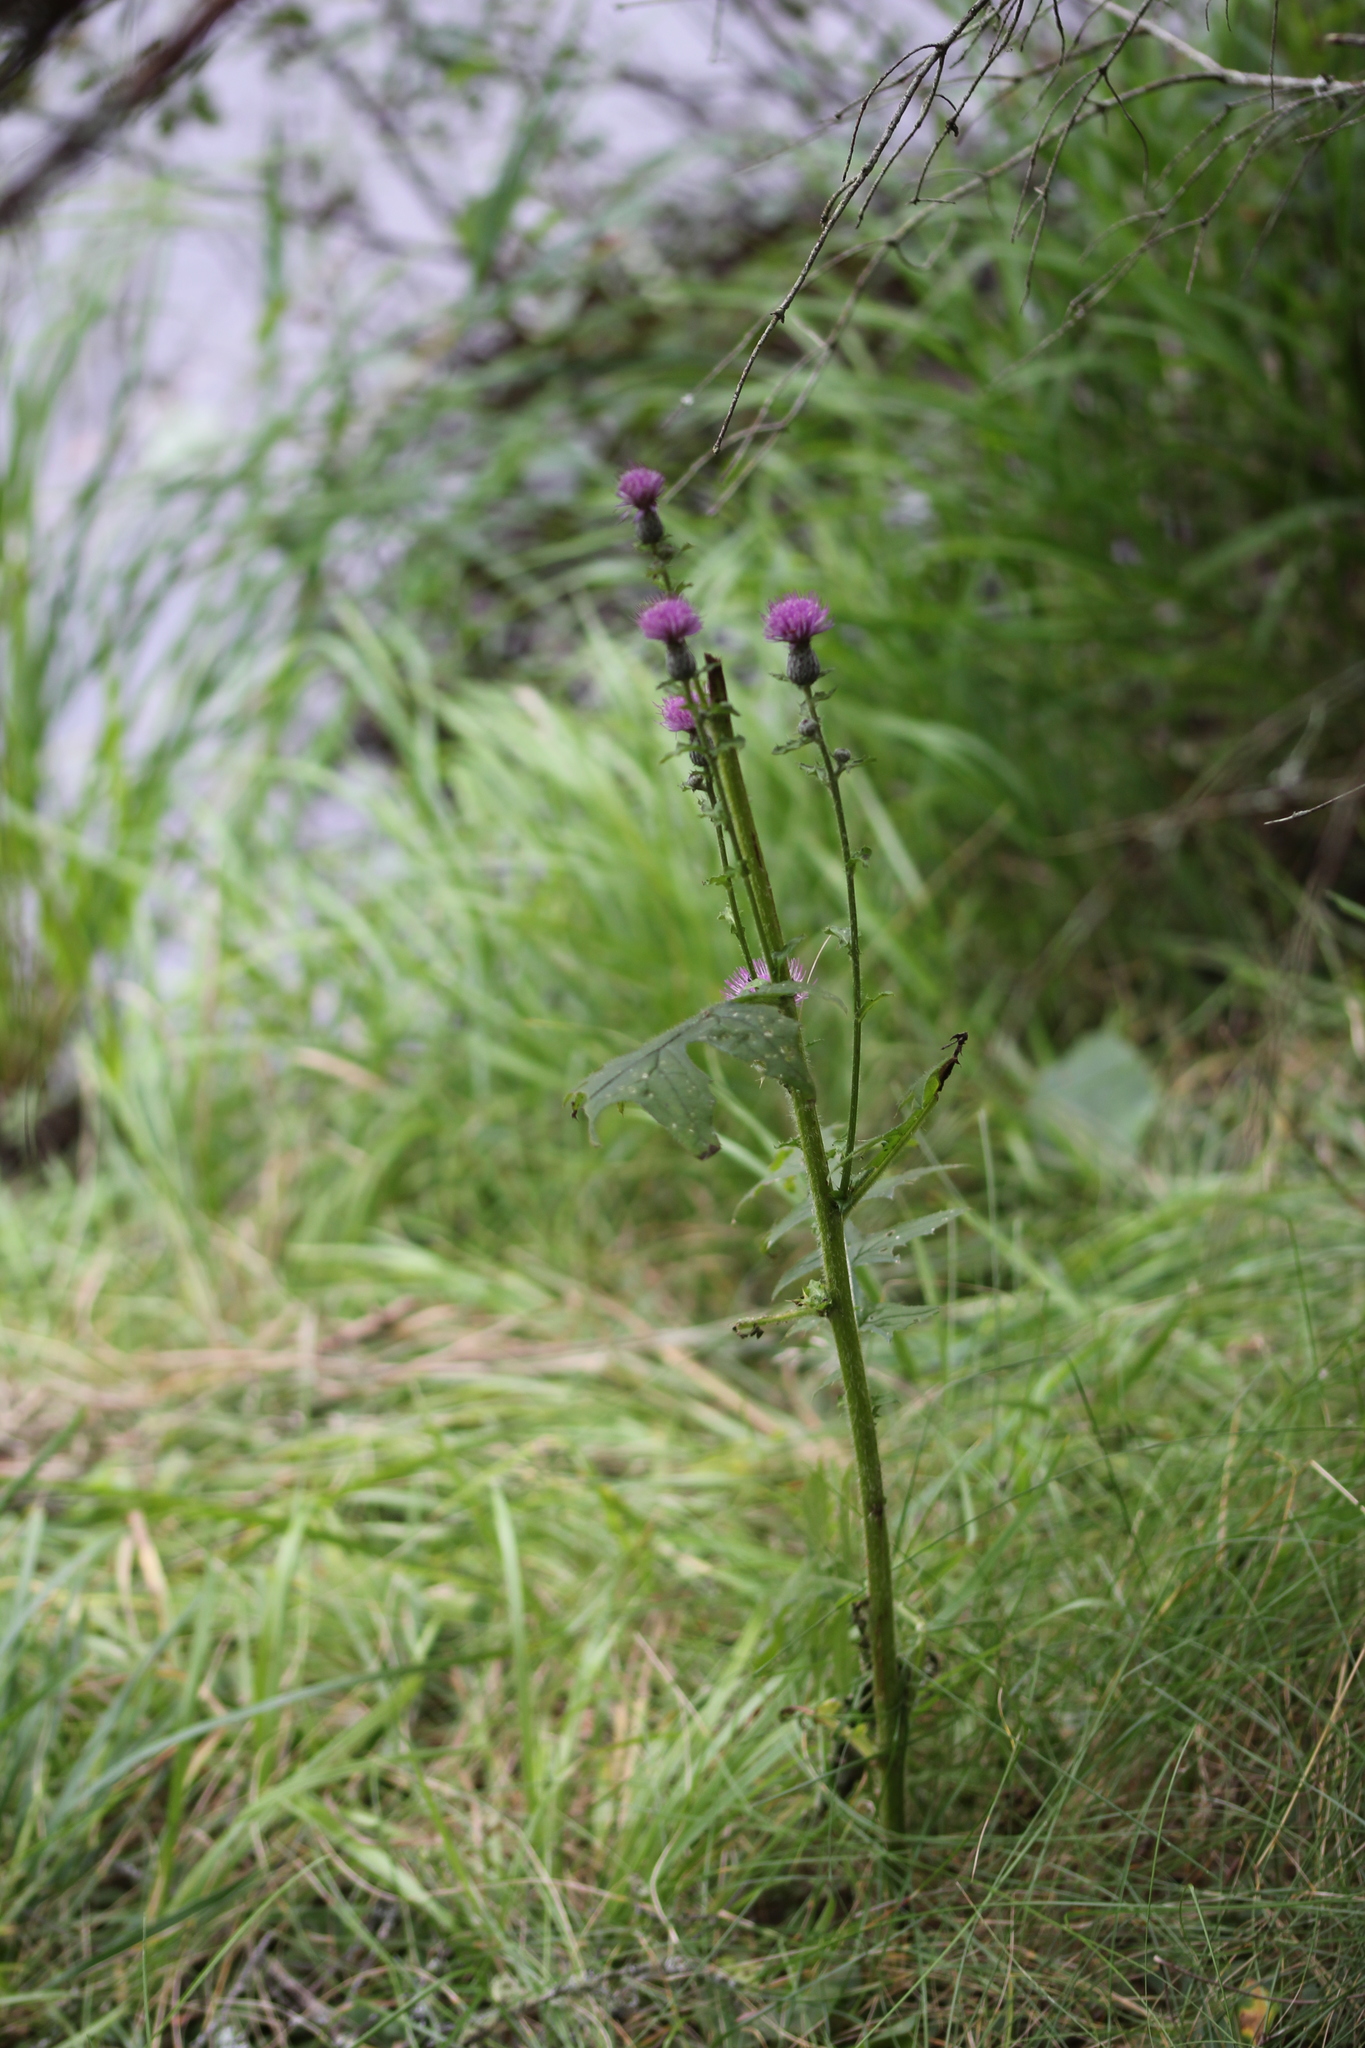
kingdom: Plantae
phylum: Tracheophyta
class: Magnoliopsida
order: Asterales
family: Asteraceae
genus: Cirsium
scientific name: Cirsium muticum
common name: Dunce-nettle
